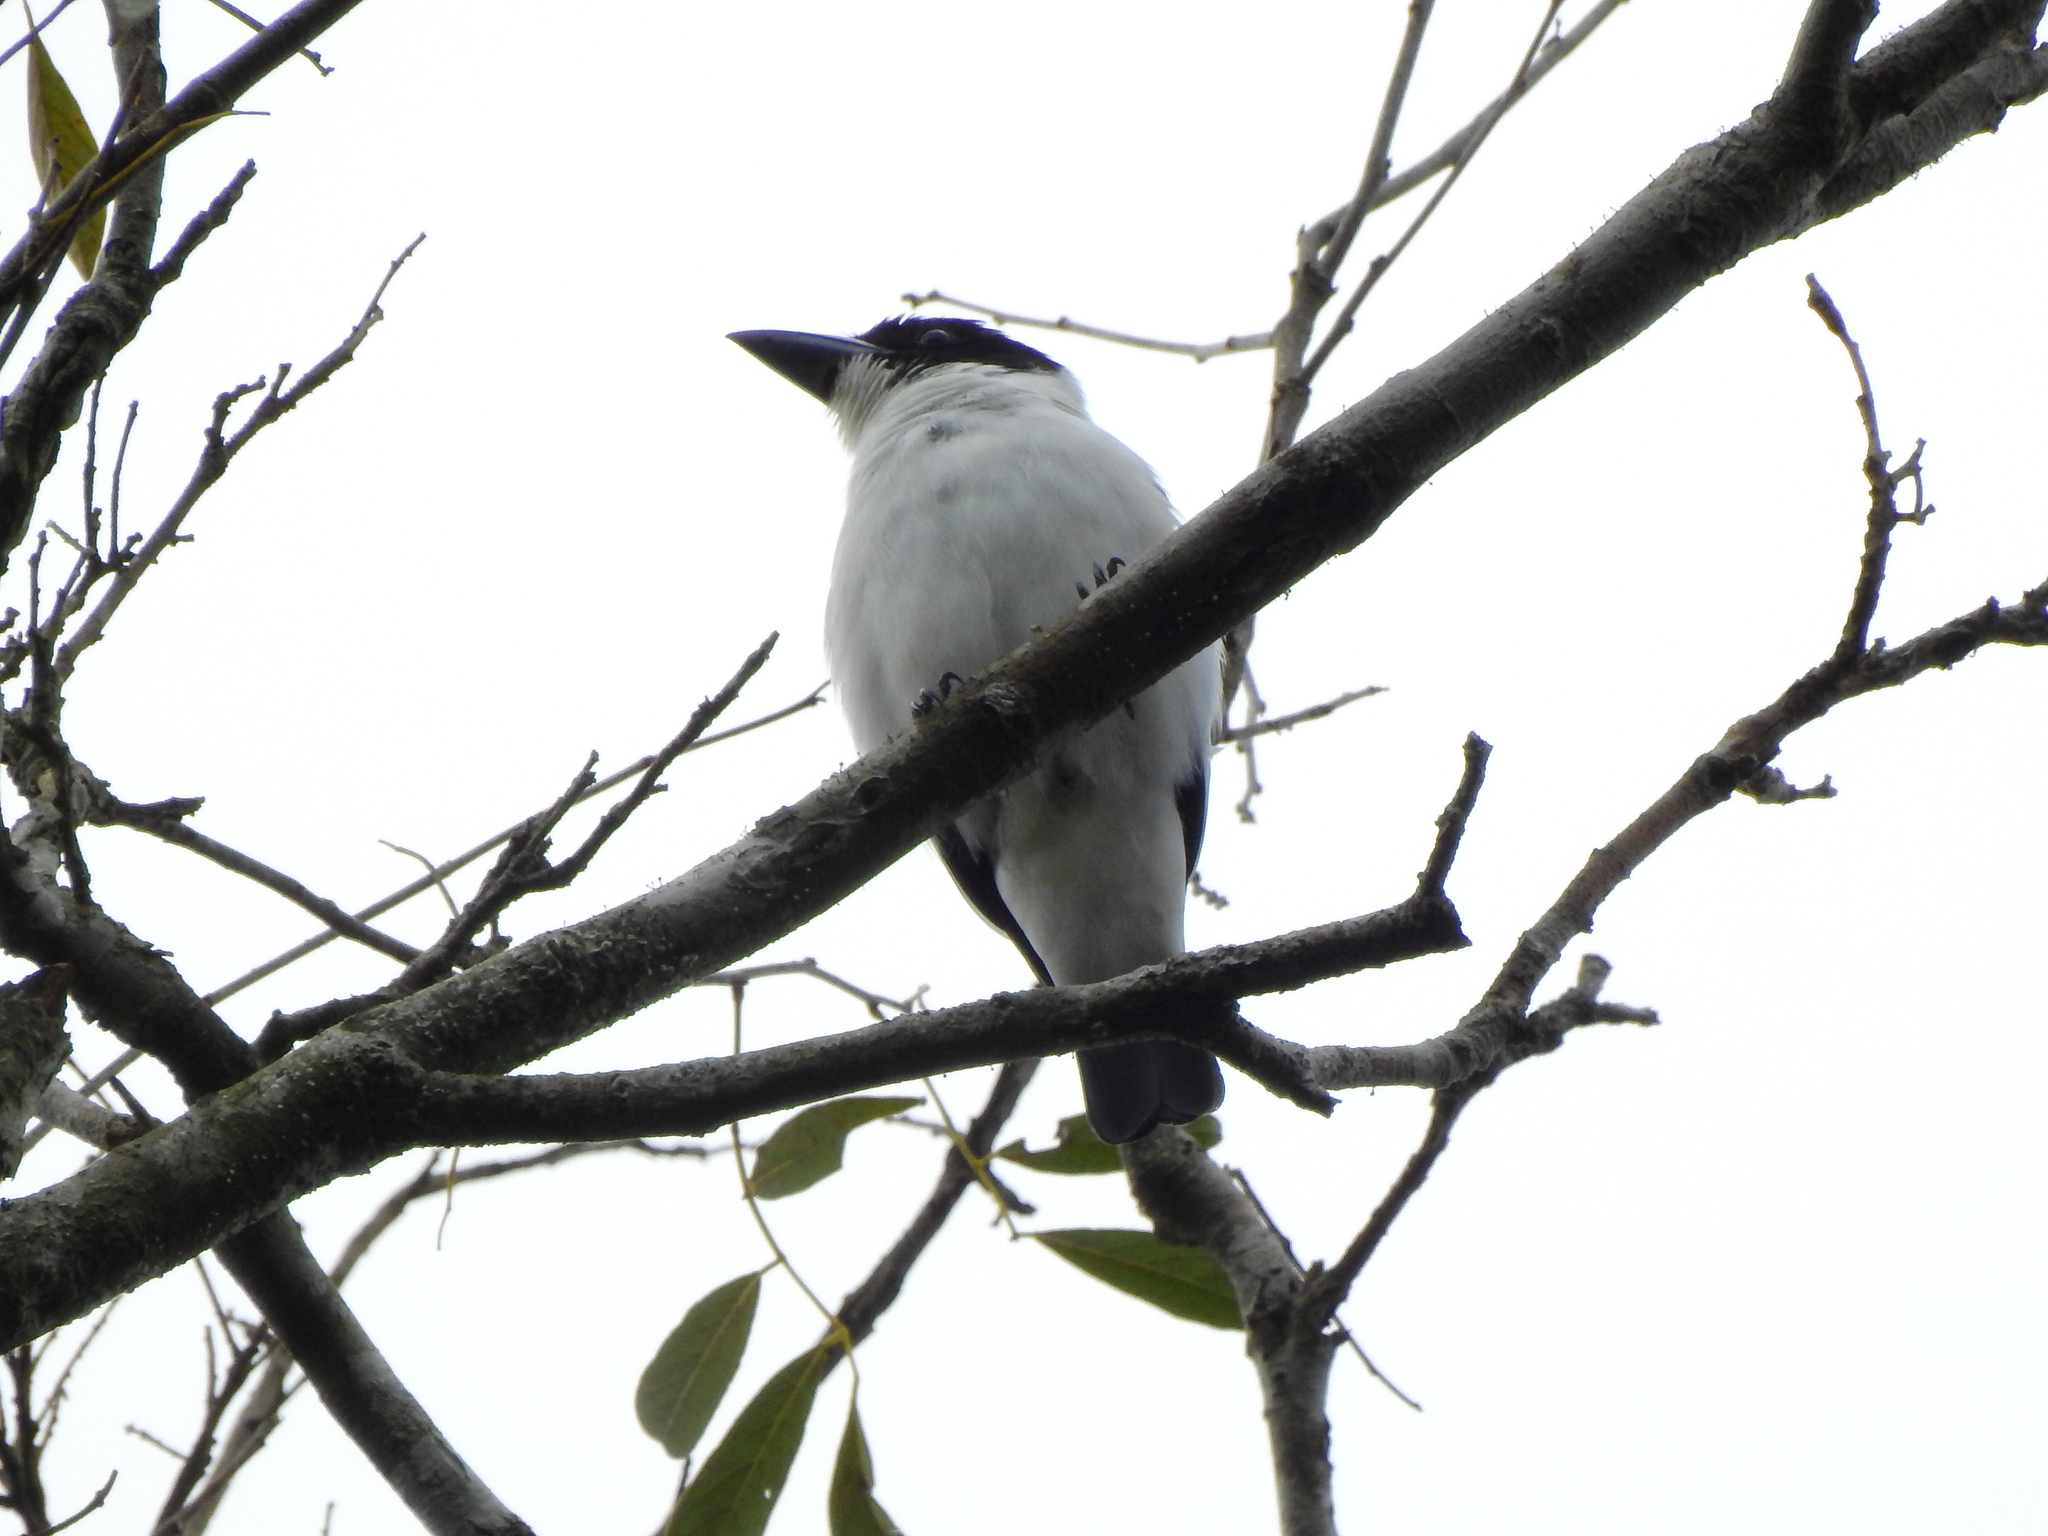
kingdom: Animalia
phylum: Chordata
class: Aves
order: Passeriformes
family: Cotingidae
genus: Tityra
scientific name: Tityra inquisitor
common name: Black-crowned tityra
